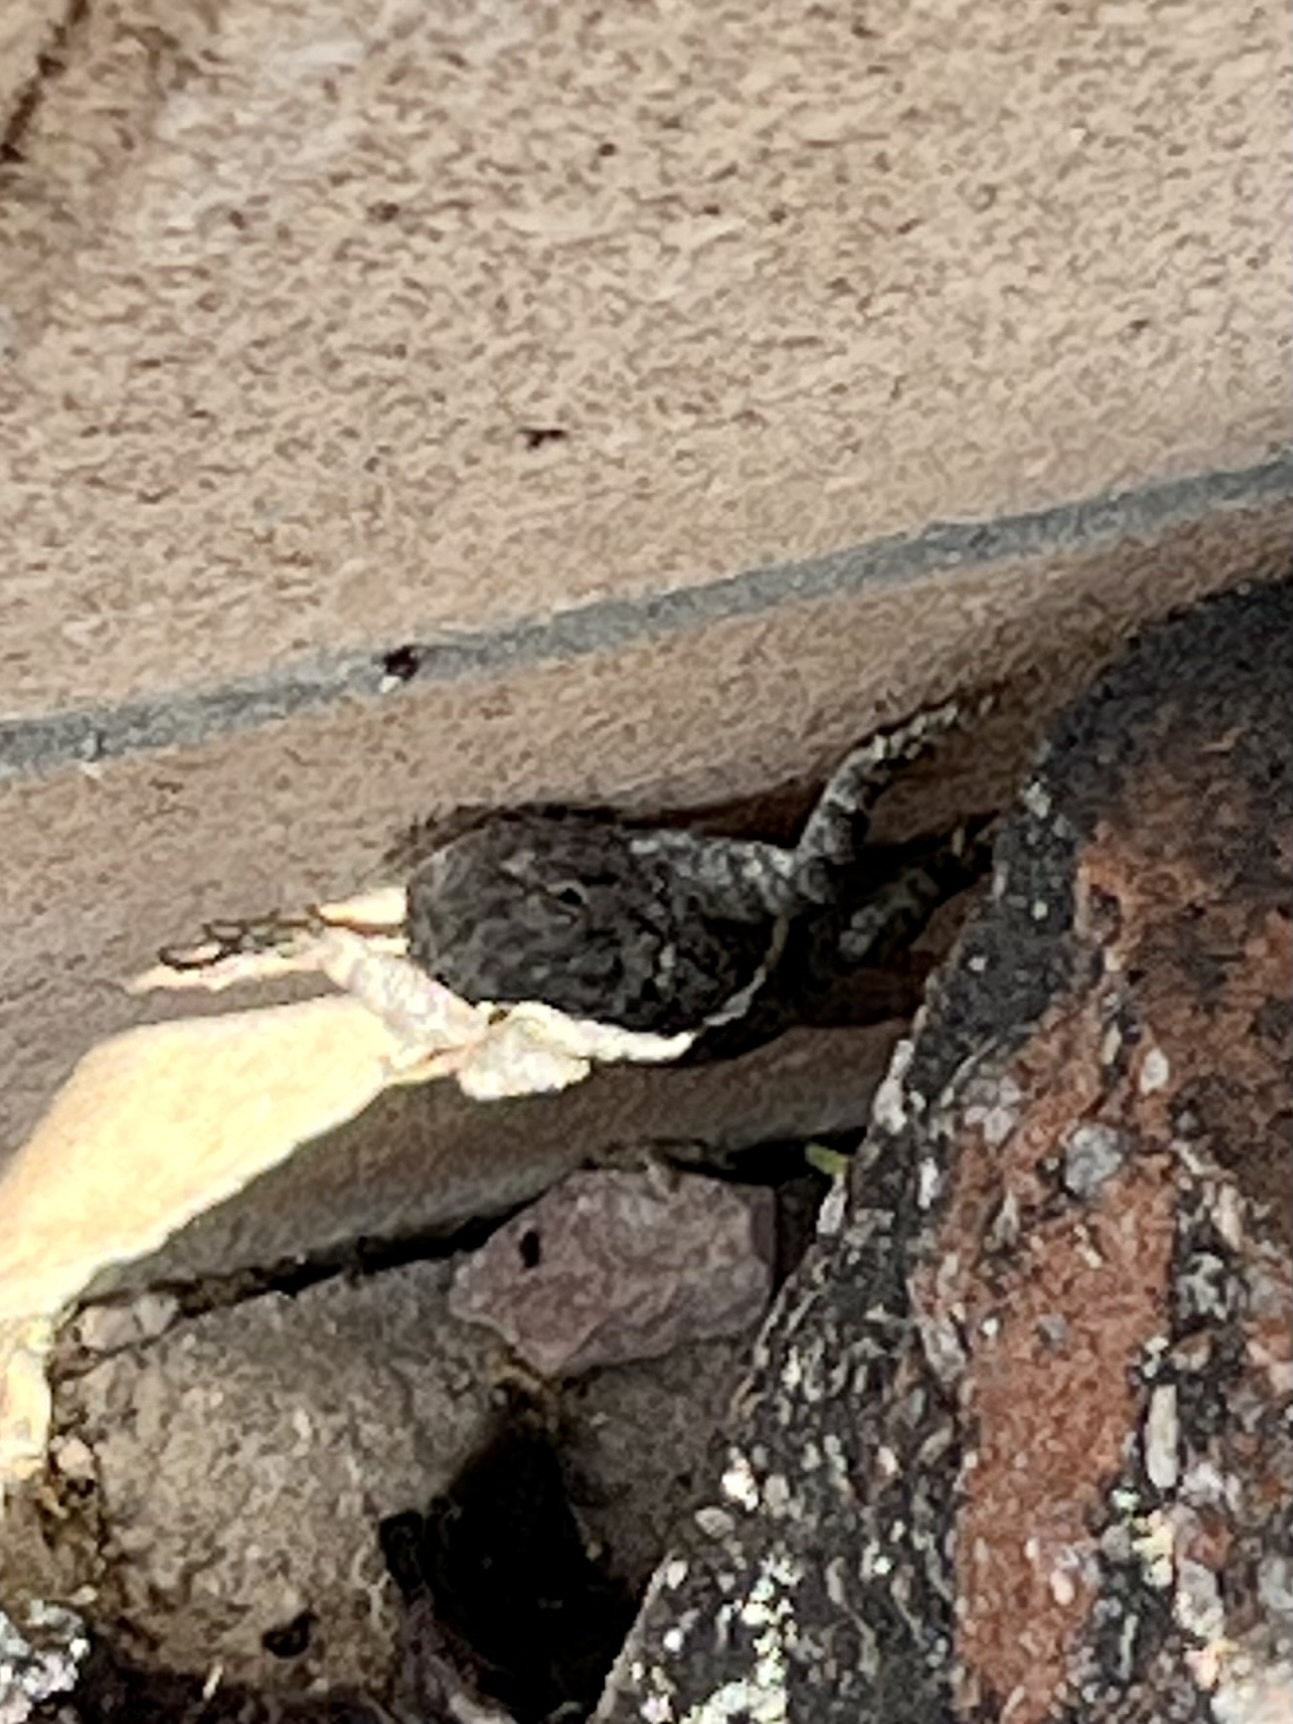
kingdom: Animalia
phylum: Chordata
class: Squamata
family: Phrynosomatidae
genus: Sceloporus
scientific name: Sceloporus clarkii
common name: Clark's spiny lizard
